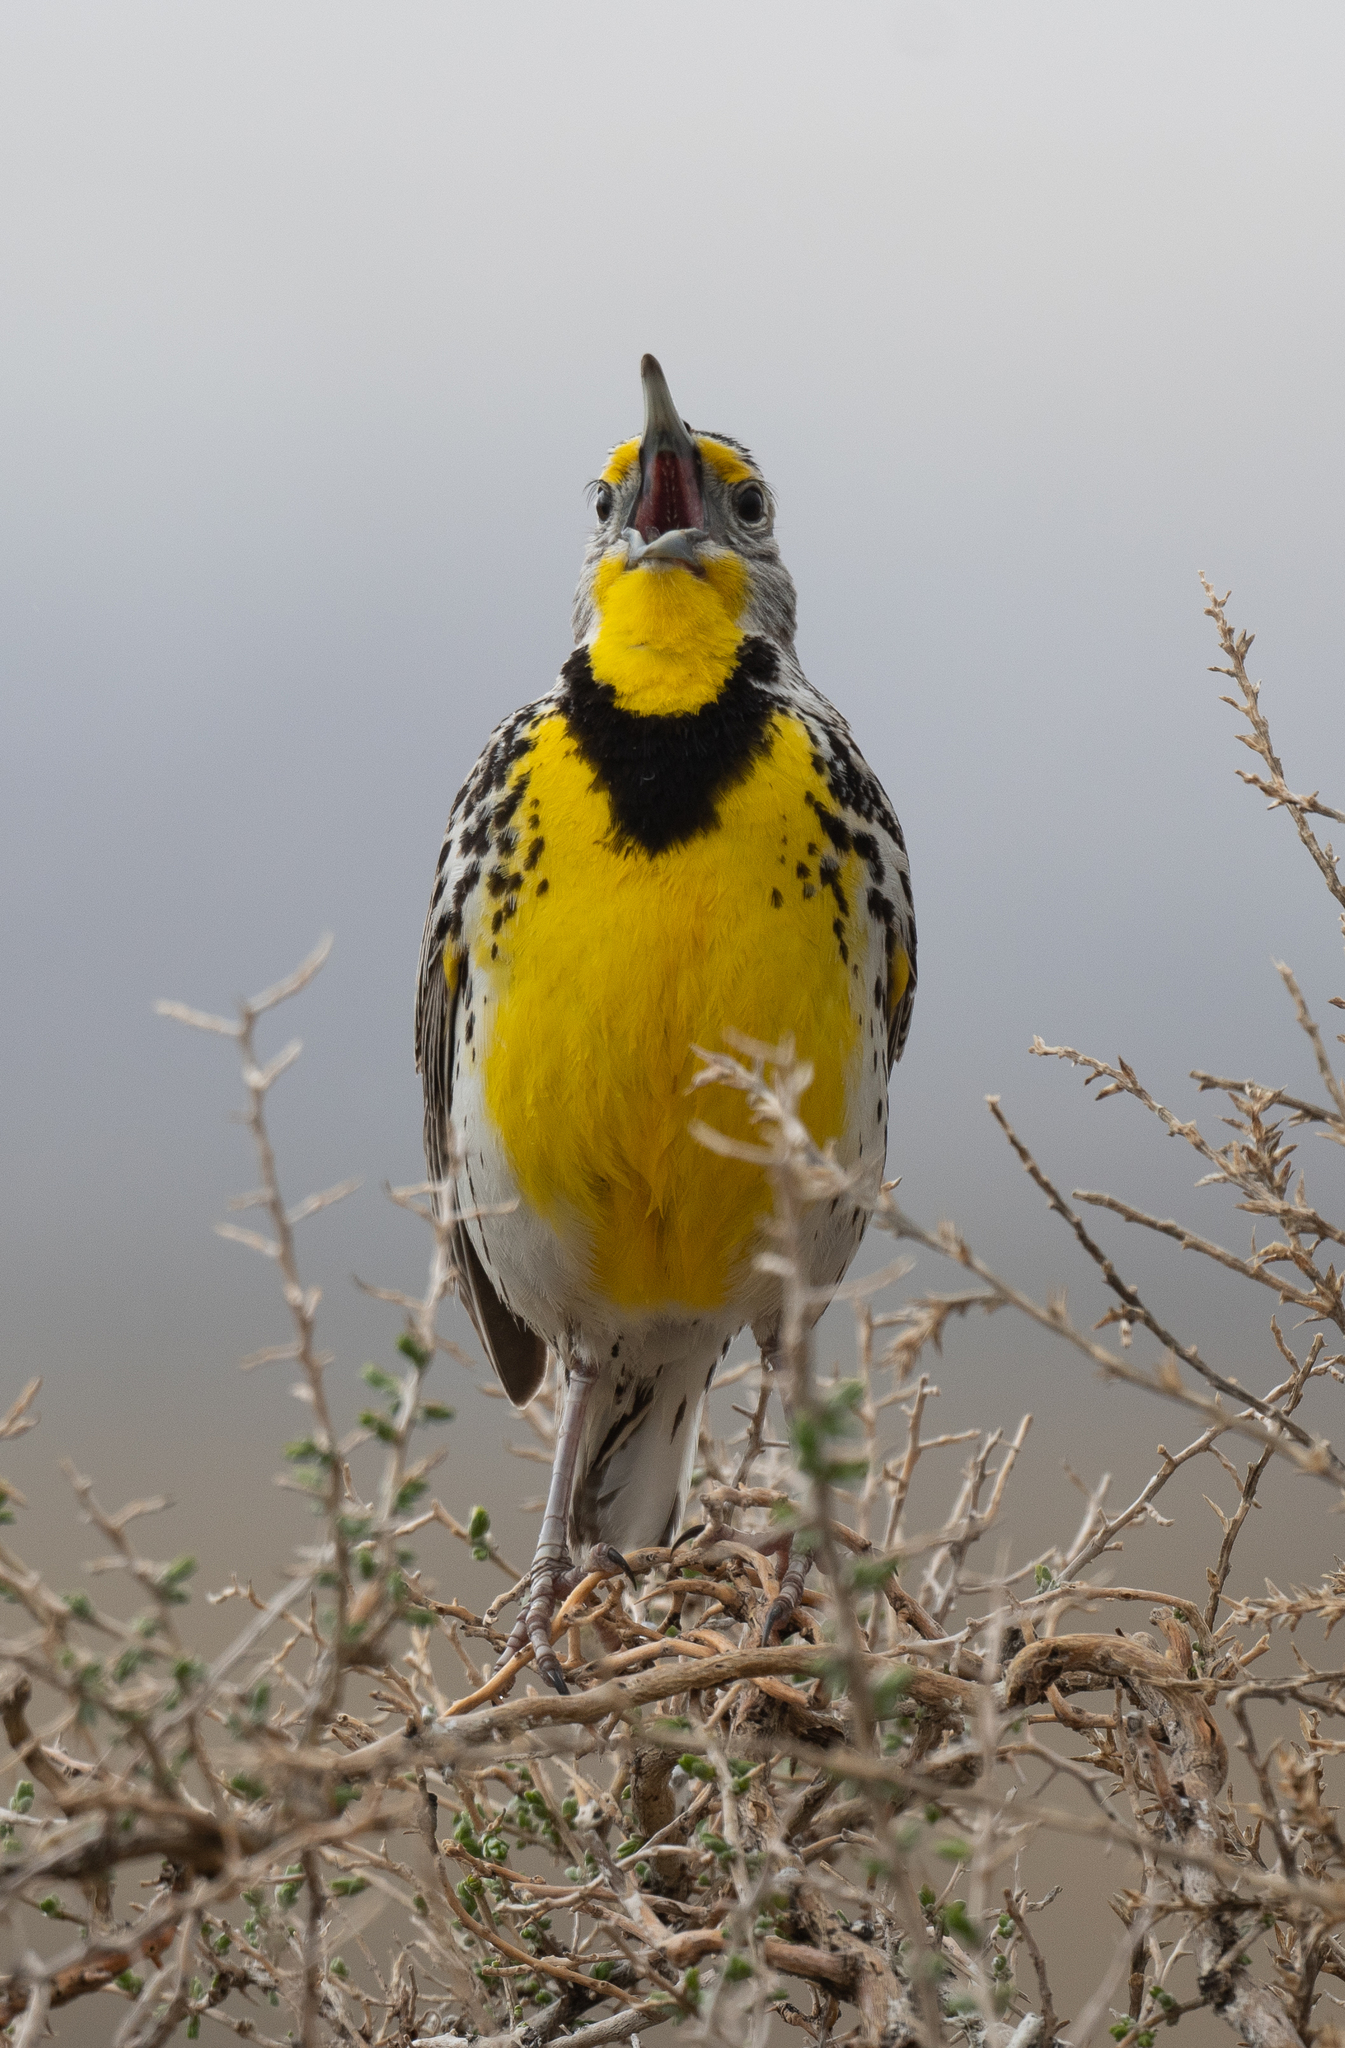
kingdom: Animalia
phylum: Chordata
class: Aves
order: Passeriformes
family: Icteridae
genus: Sturnella
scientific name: Sturnella neglecta
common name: Western meadowlark
